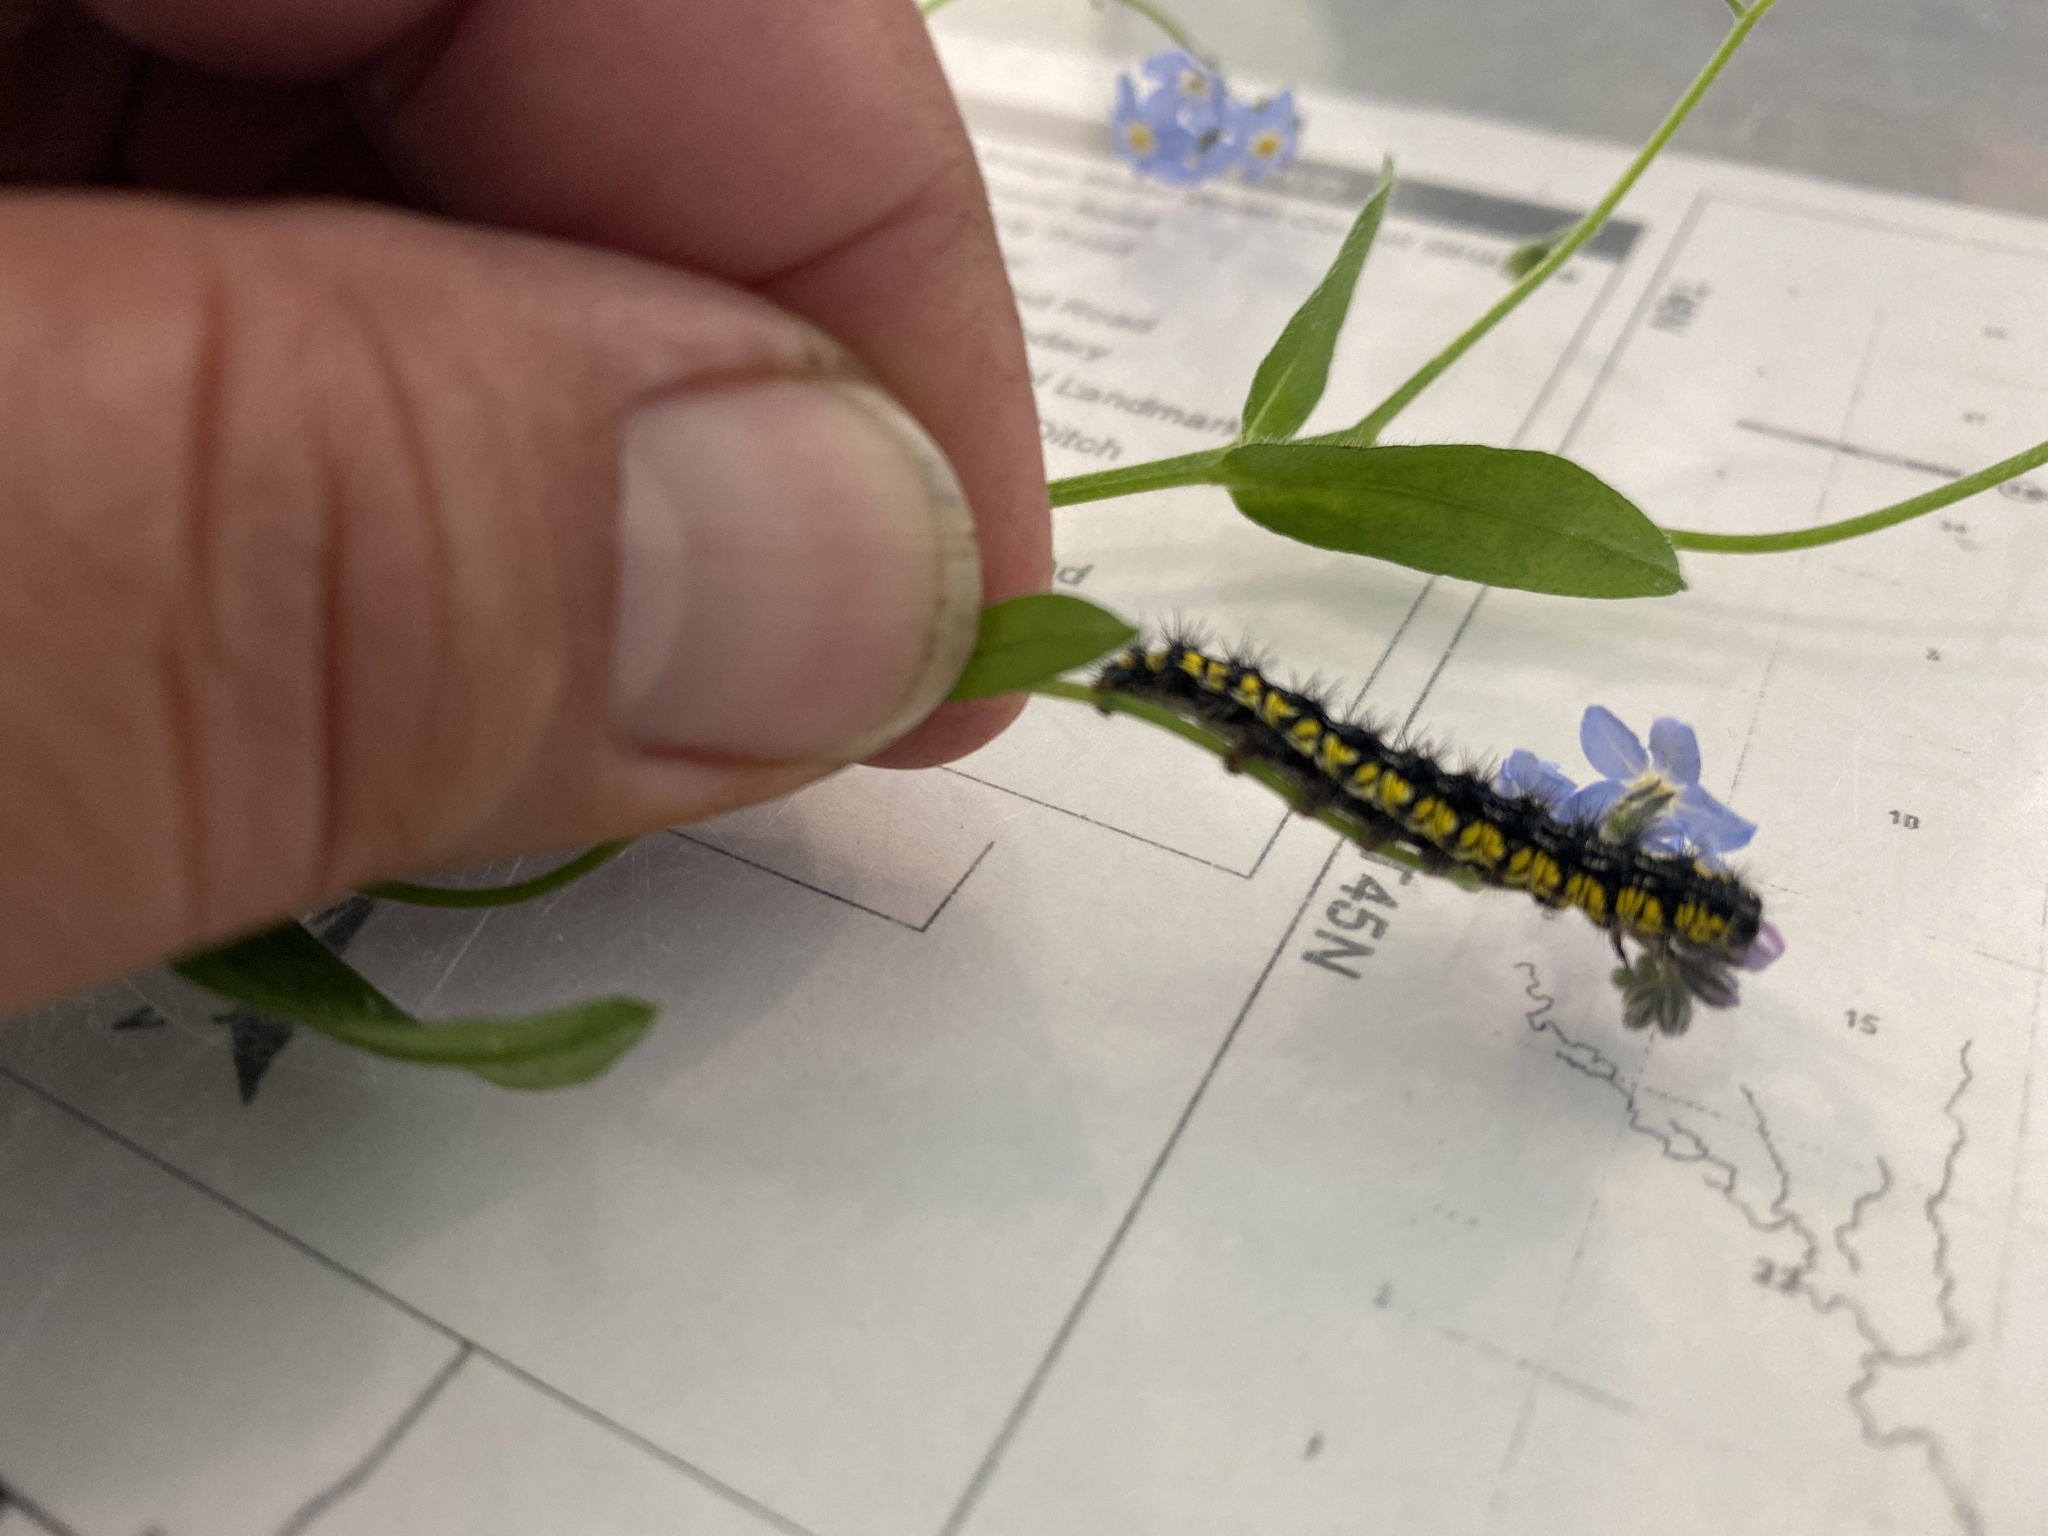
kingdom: Animalia
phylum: Arthropoda
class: Insecta
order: Lepidoptera
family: Erebidae
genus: Haploa
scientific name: Haploa contigua
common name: Neighbor moth
